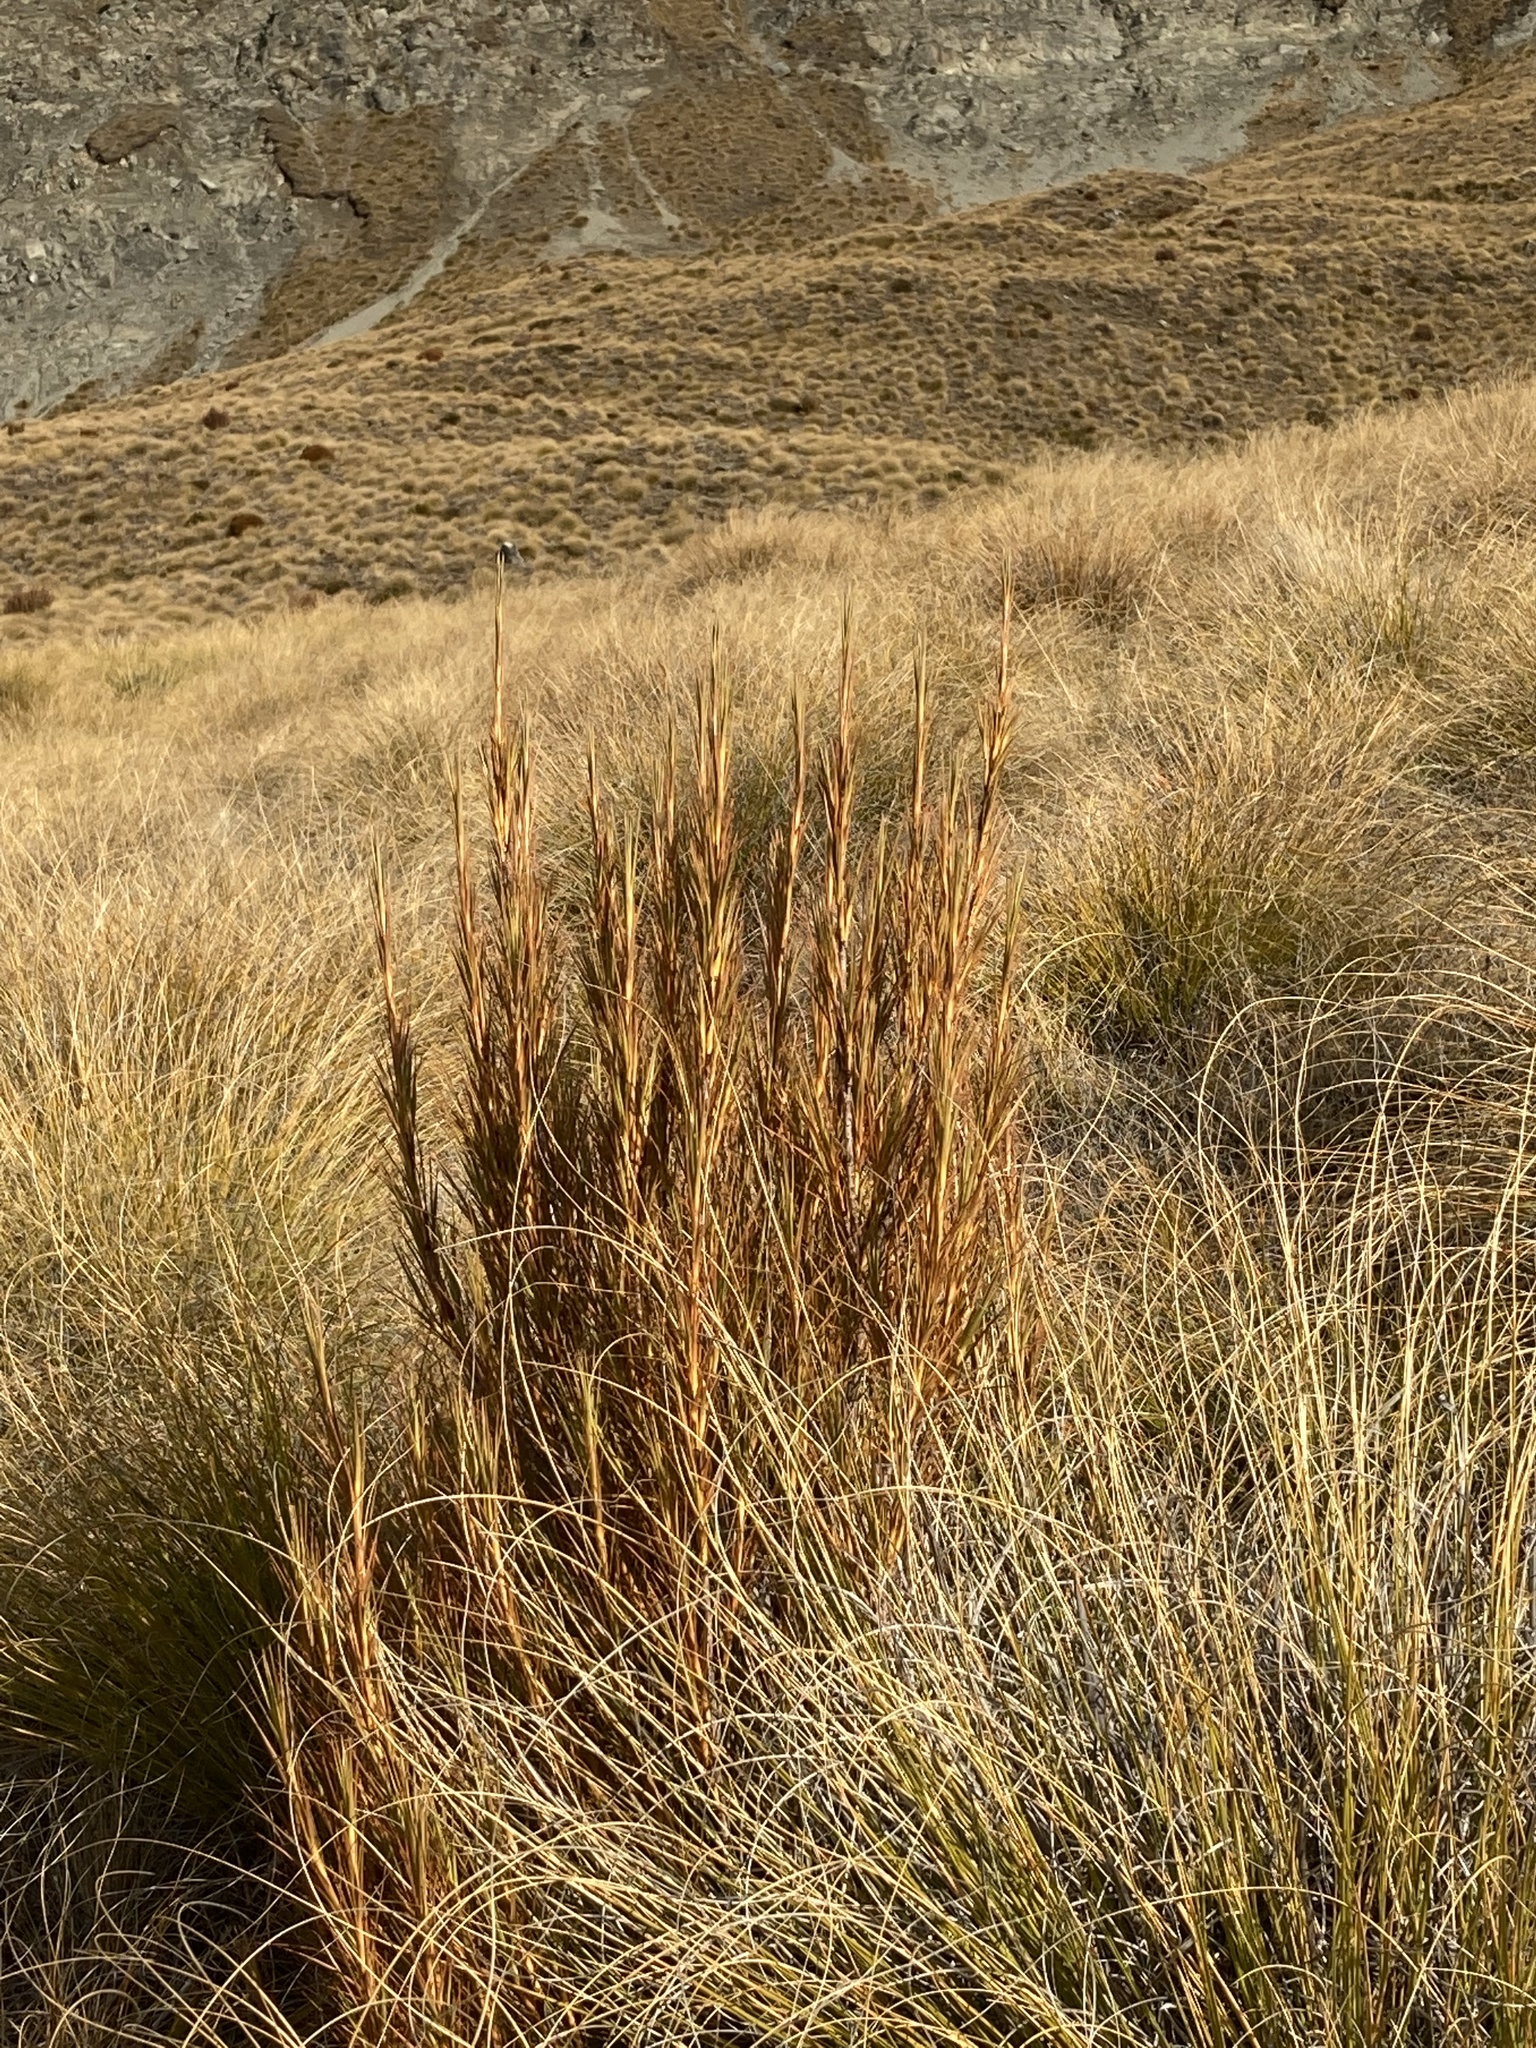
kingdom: Plantae
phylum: Tracheophyta
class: Magnoliopsida
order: Ericales
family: Ericaceae
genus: Dracophyllum
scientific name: Dracophyllum longifolium
